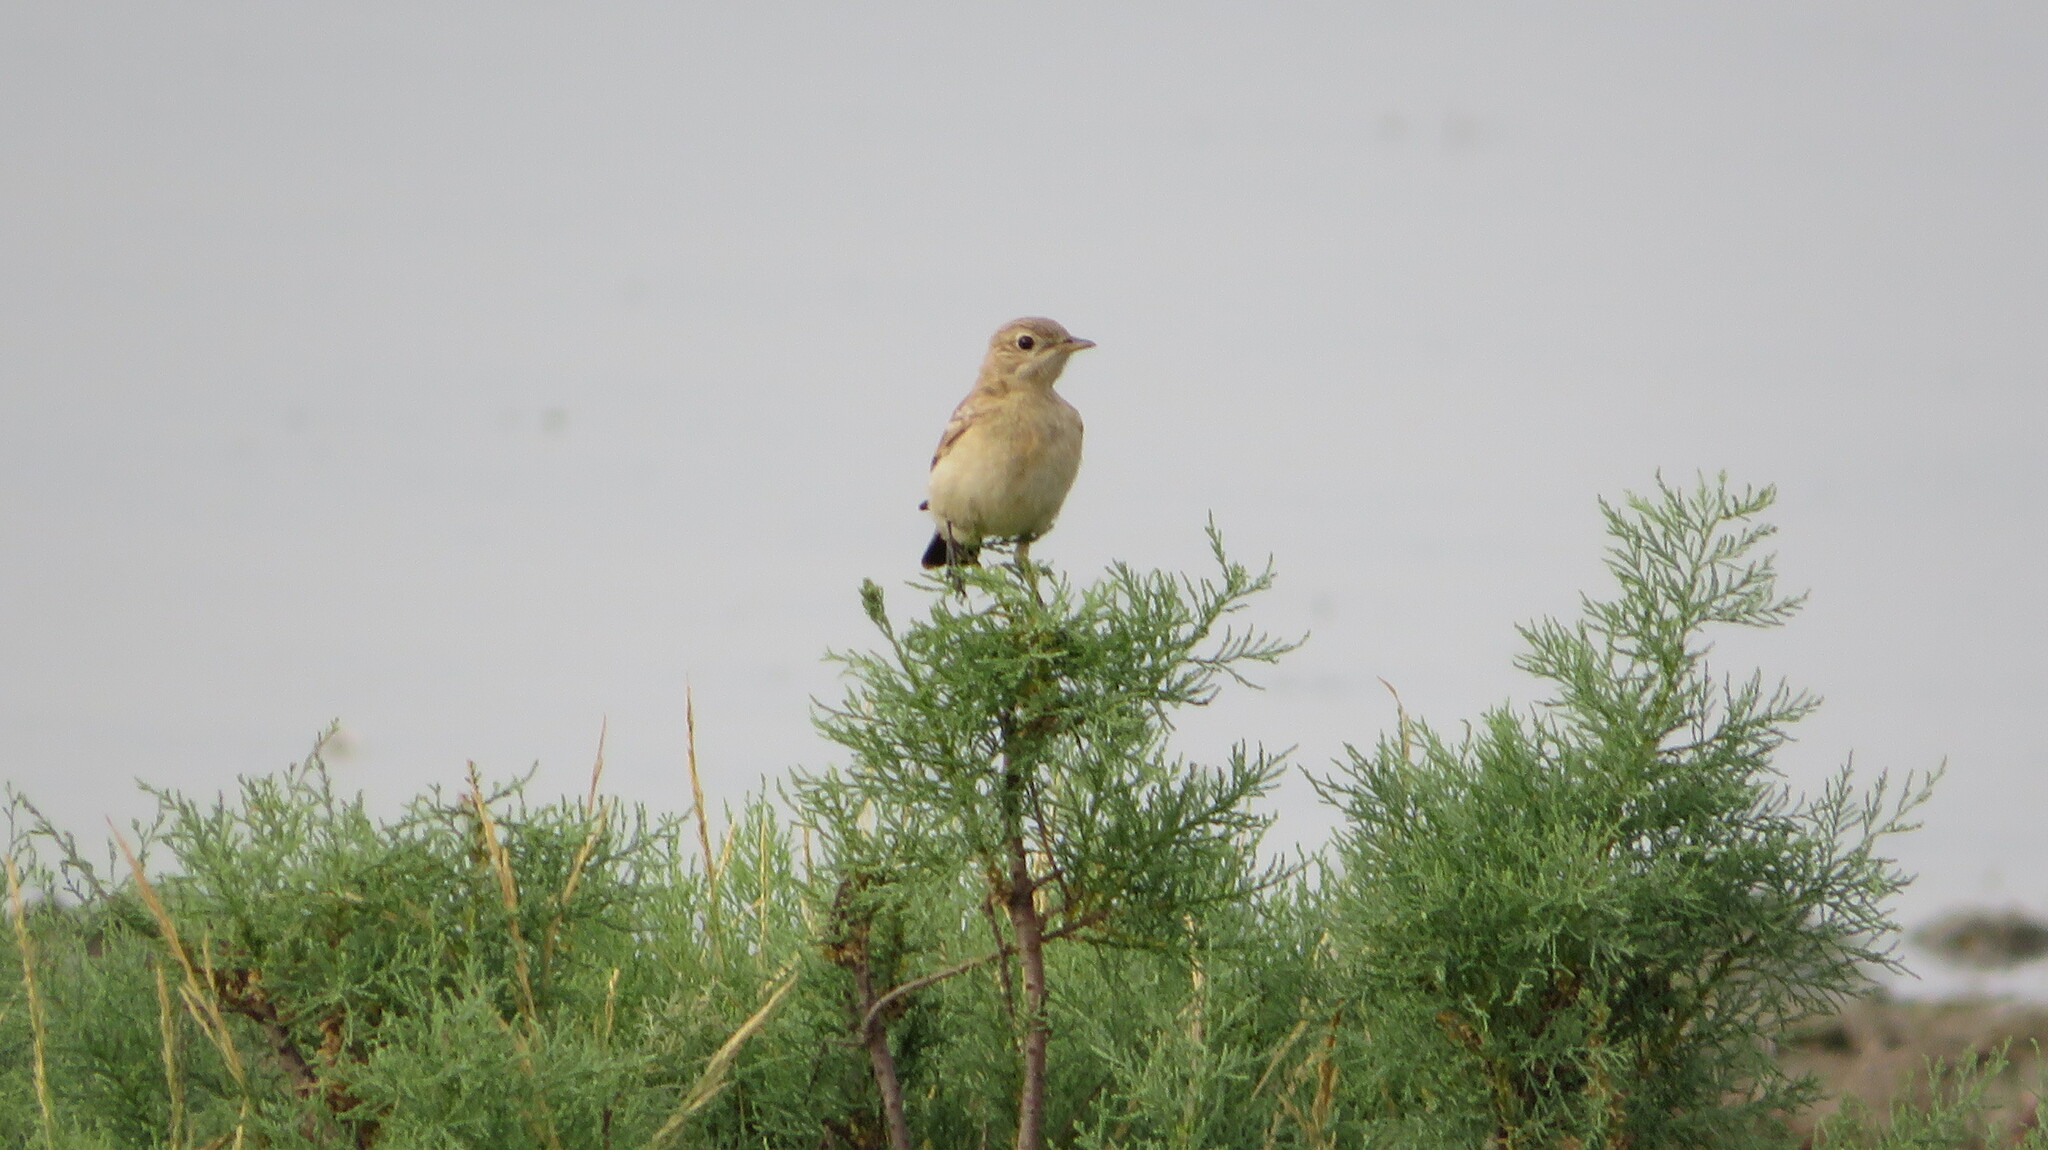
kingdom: Animalia
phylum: Chordata
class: Aves
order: Passeriformes
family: Muscicapidae
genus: Oenanthe
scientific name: Oenanthe isabellina
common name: Isabelline wheatear
